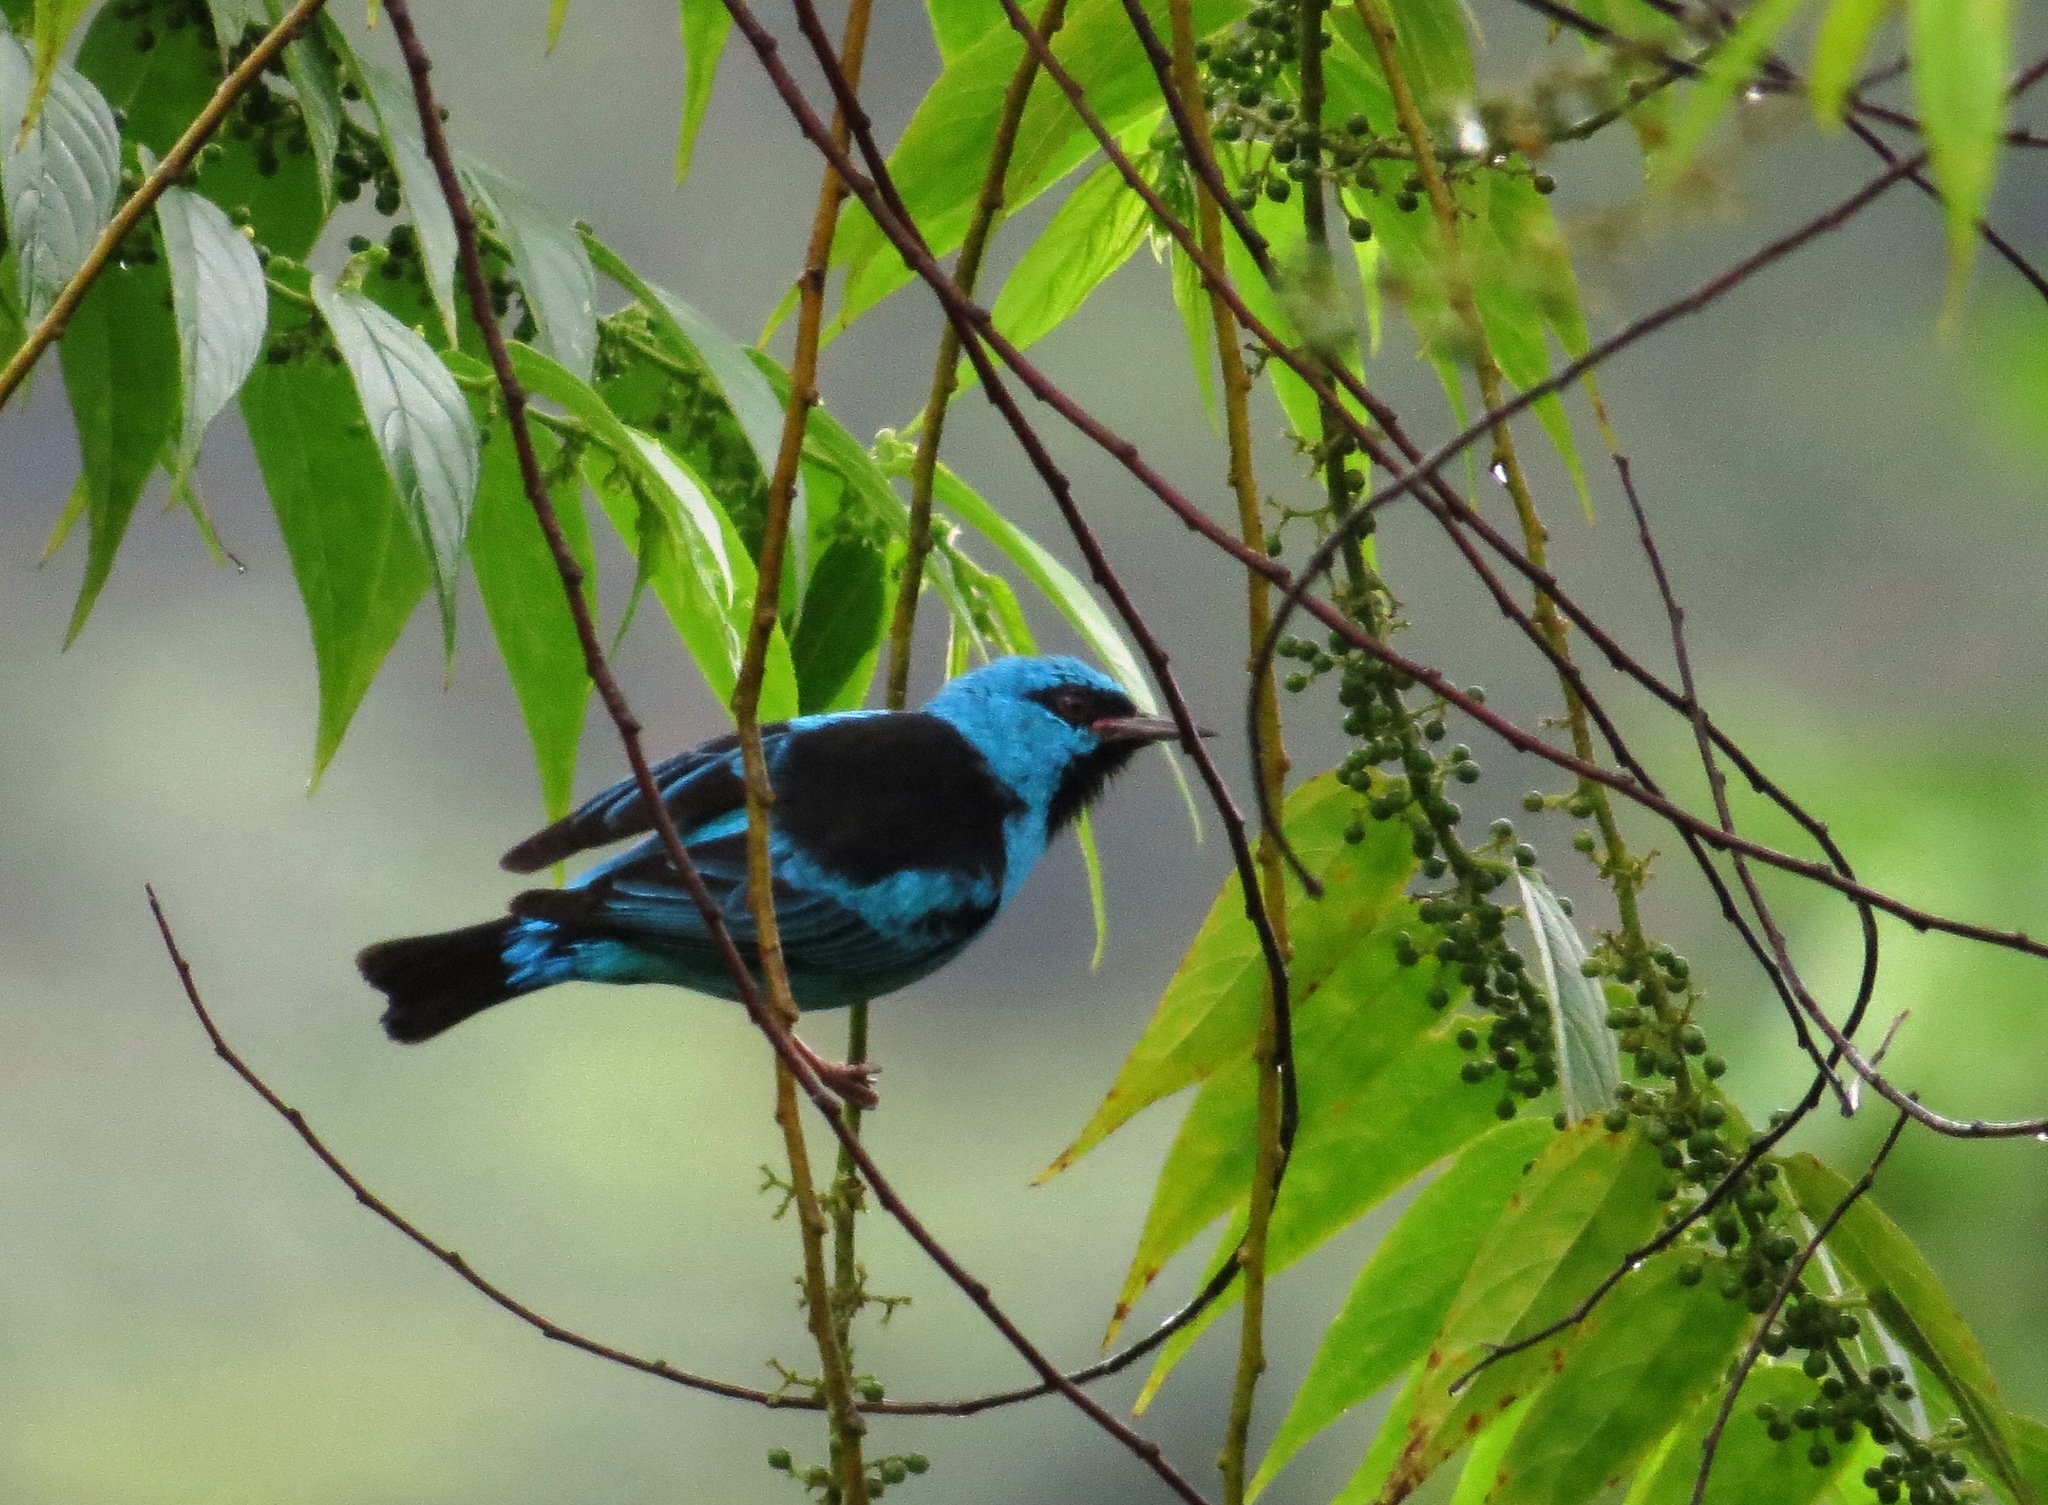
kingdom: Animalia
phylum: Chordata
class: Aves
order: Passeriformes
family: Thraupidae
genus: Dacnis
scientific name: Dacnis cayana
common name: Blue dacnis
